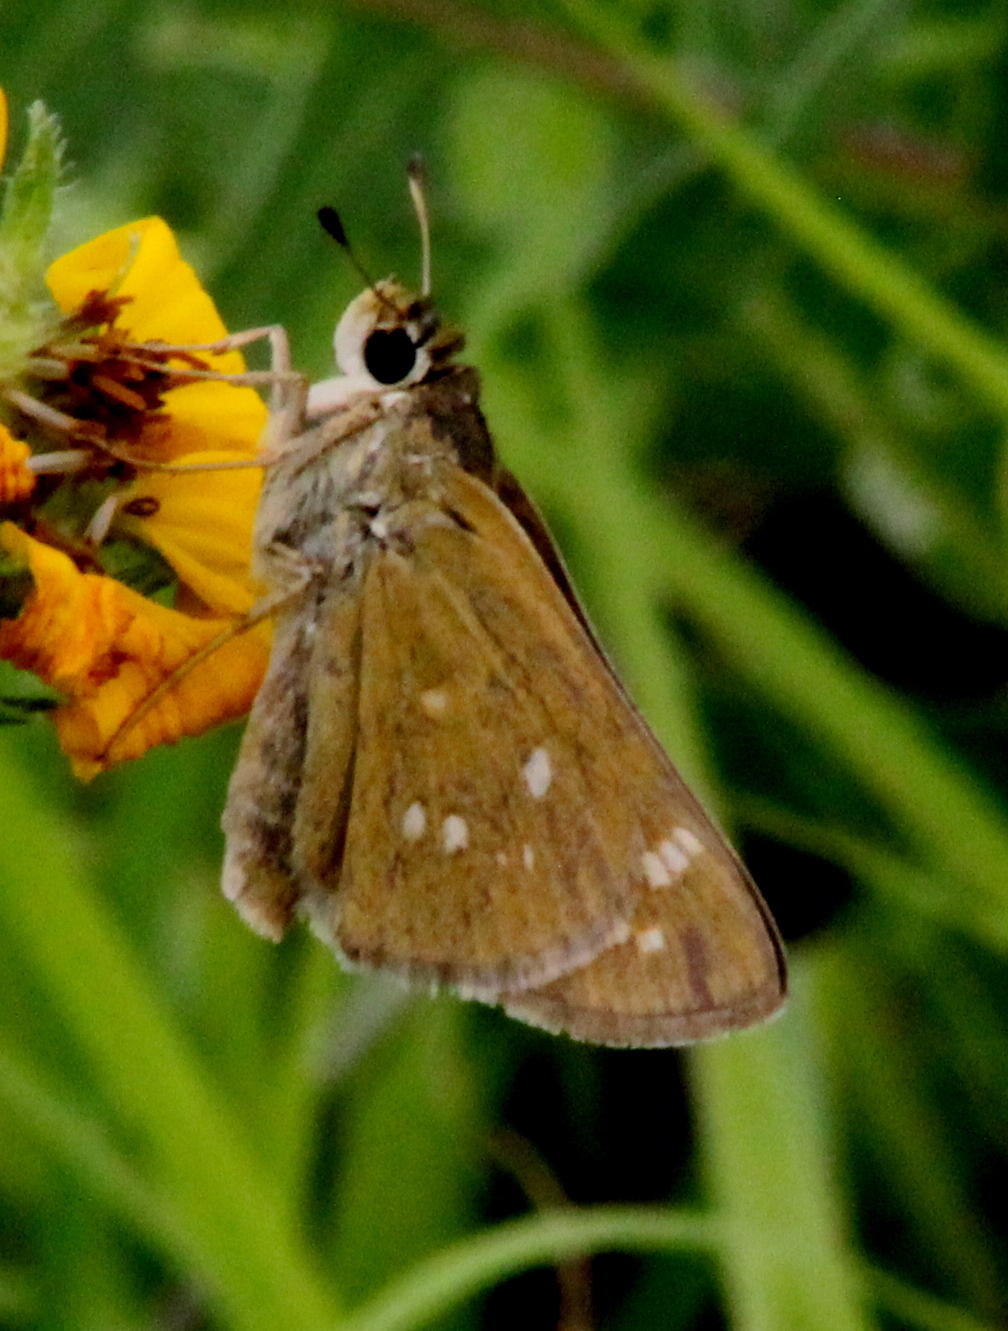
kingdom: Animalia
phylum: Arthropoda
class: Insecta
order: Lepidoptera
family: Hesperiidae
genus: Hesperia
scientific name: Hesperia attalus
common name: Dotted skipper
